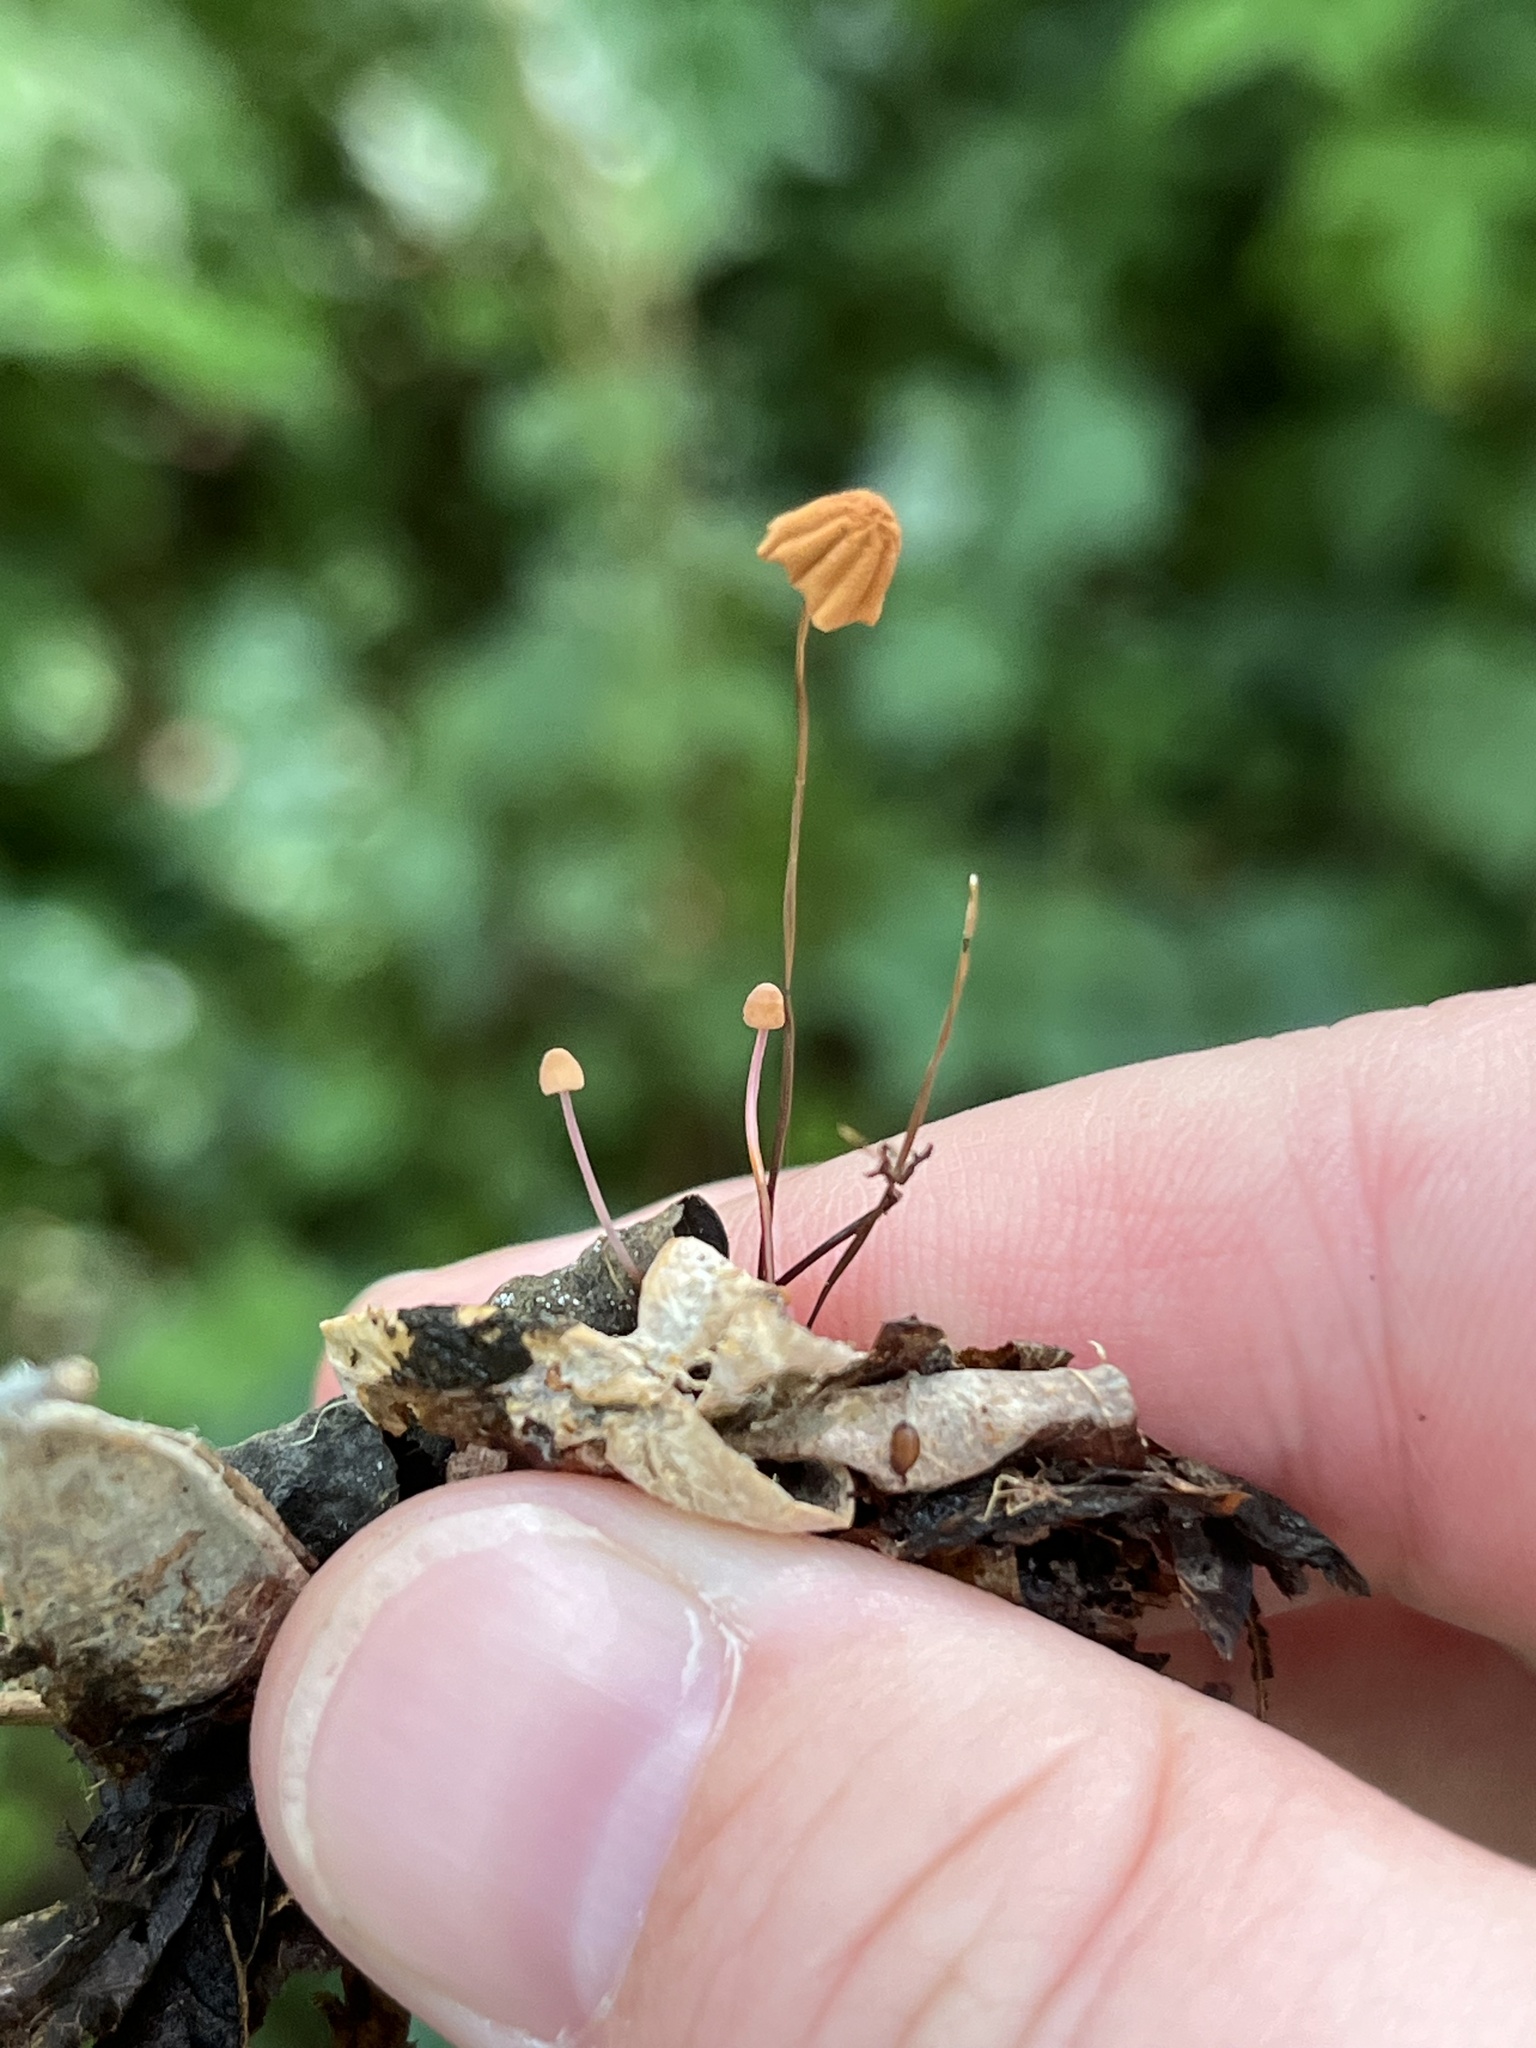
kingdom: Fungi
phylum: Basidiomycota
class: Agaricomycetes
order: Agaricales
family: Marasmiaceae
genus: Marasmius
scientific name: Marasmius siccus
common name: Orange pinwheel
